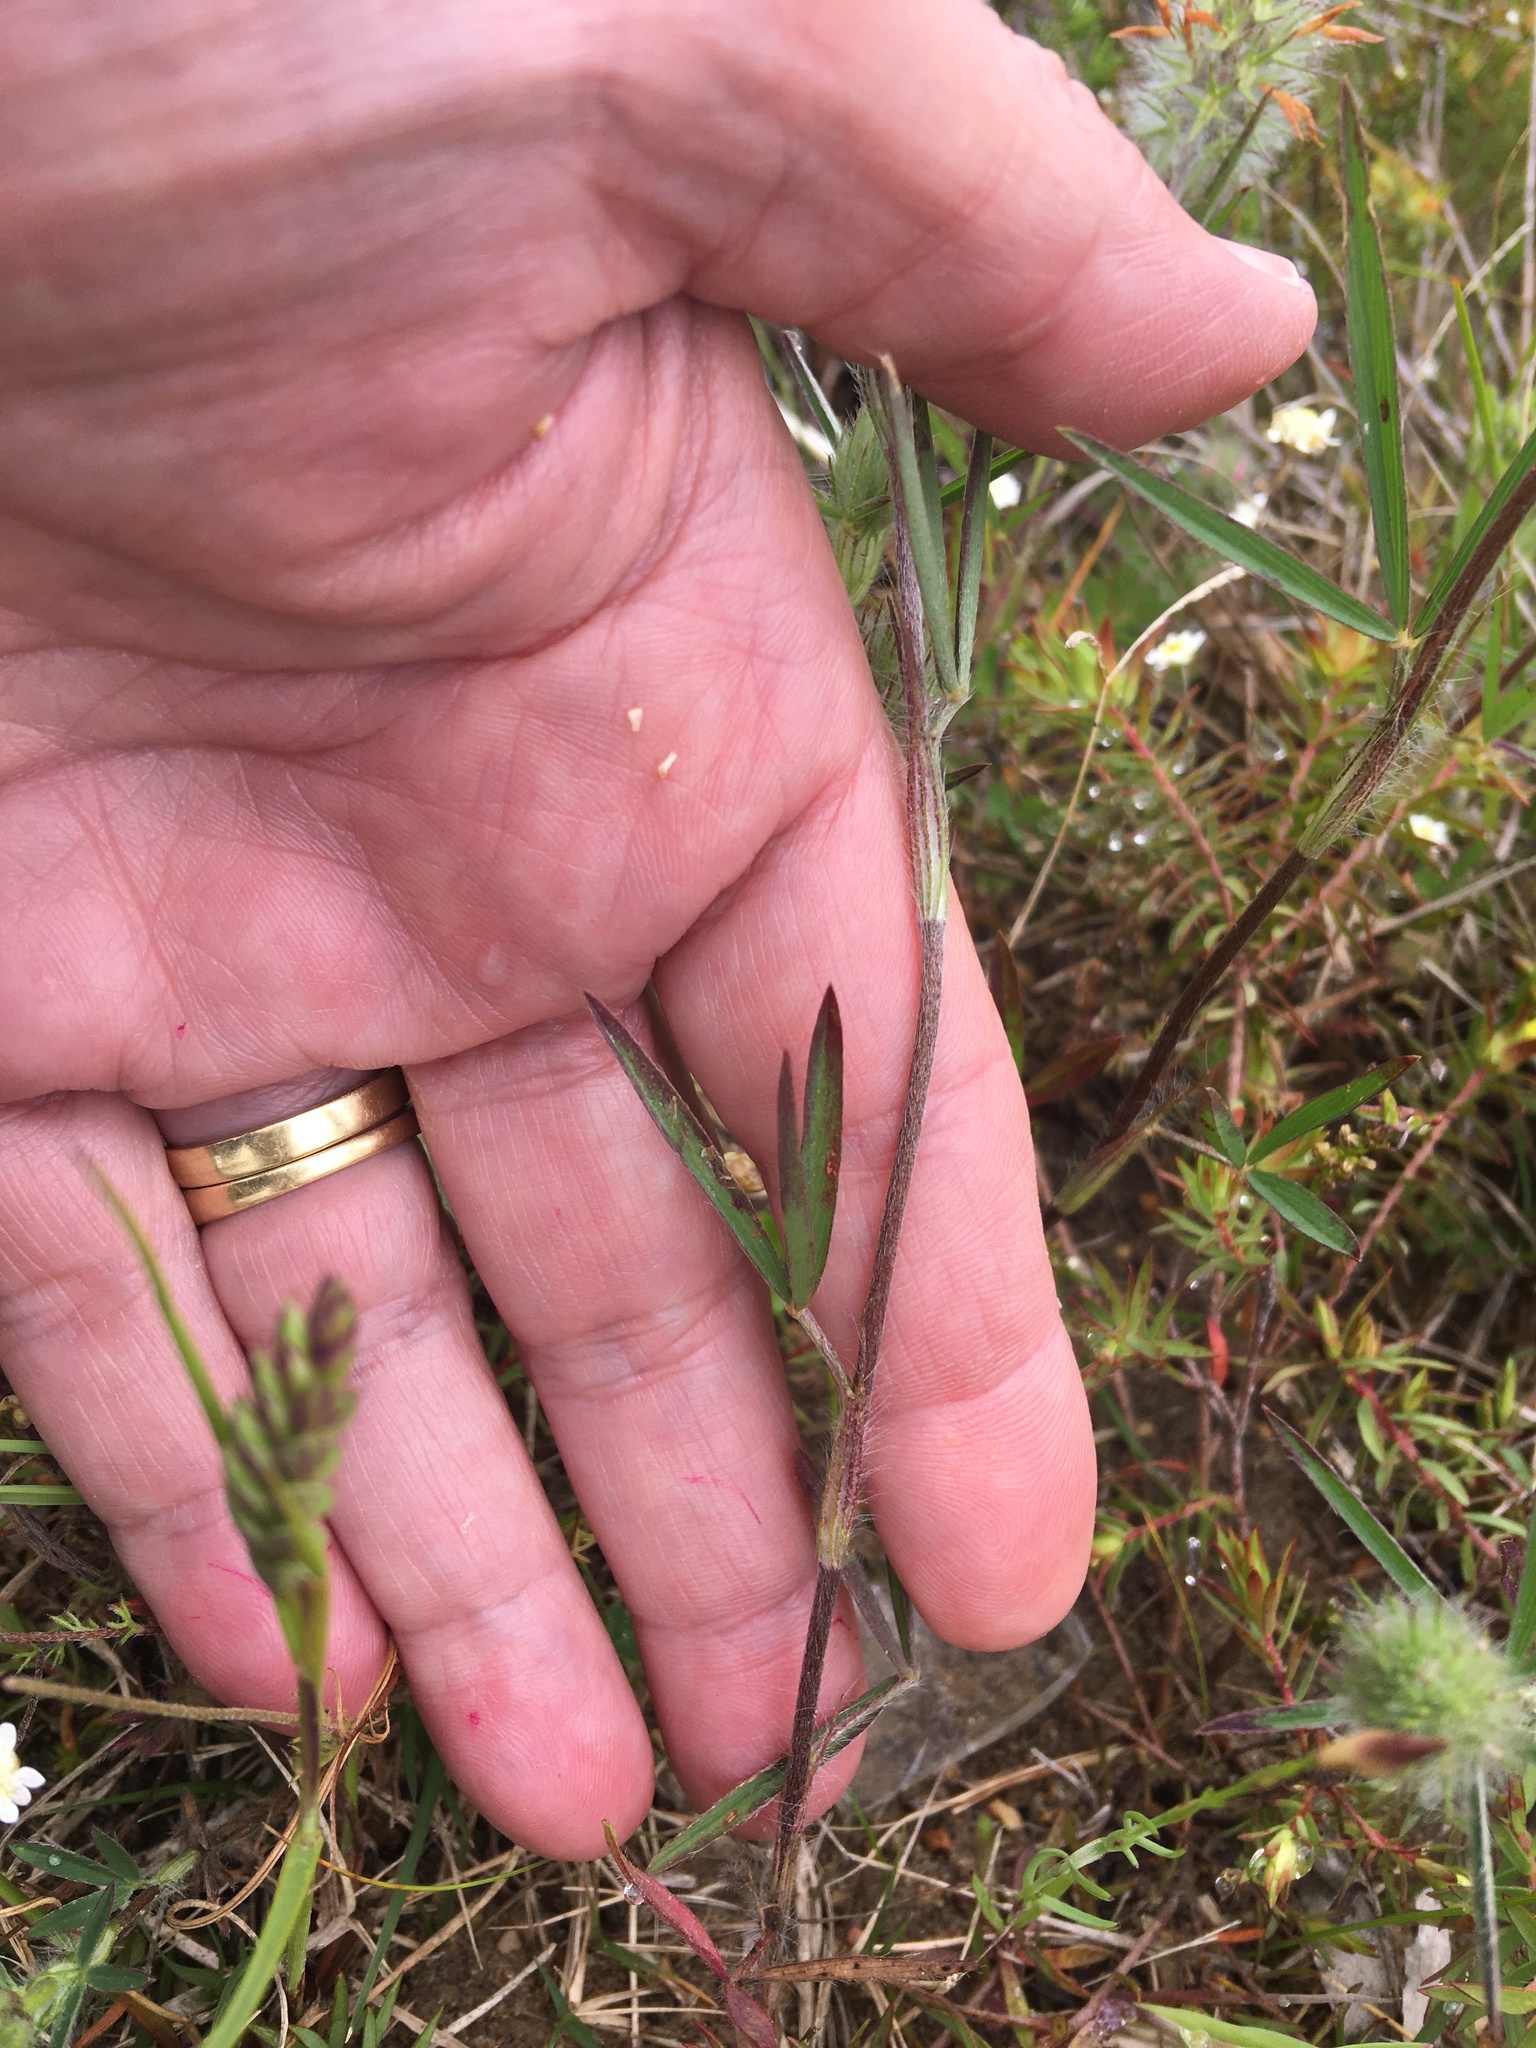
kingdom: Plantae
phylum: Tracheophyta
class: Magnoliopsida
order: Fabales
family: Fabaceae
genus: Trifolium
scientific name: Trifolium angustifolium
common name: Narrow clover
